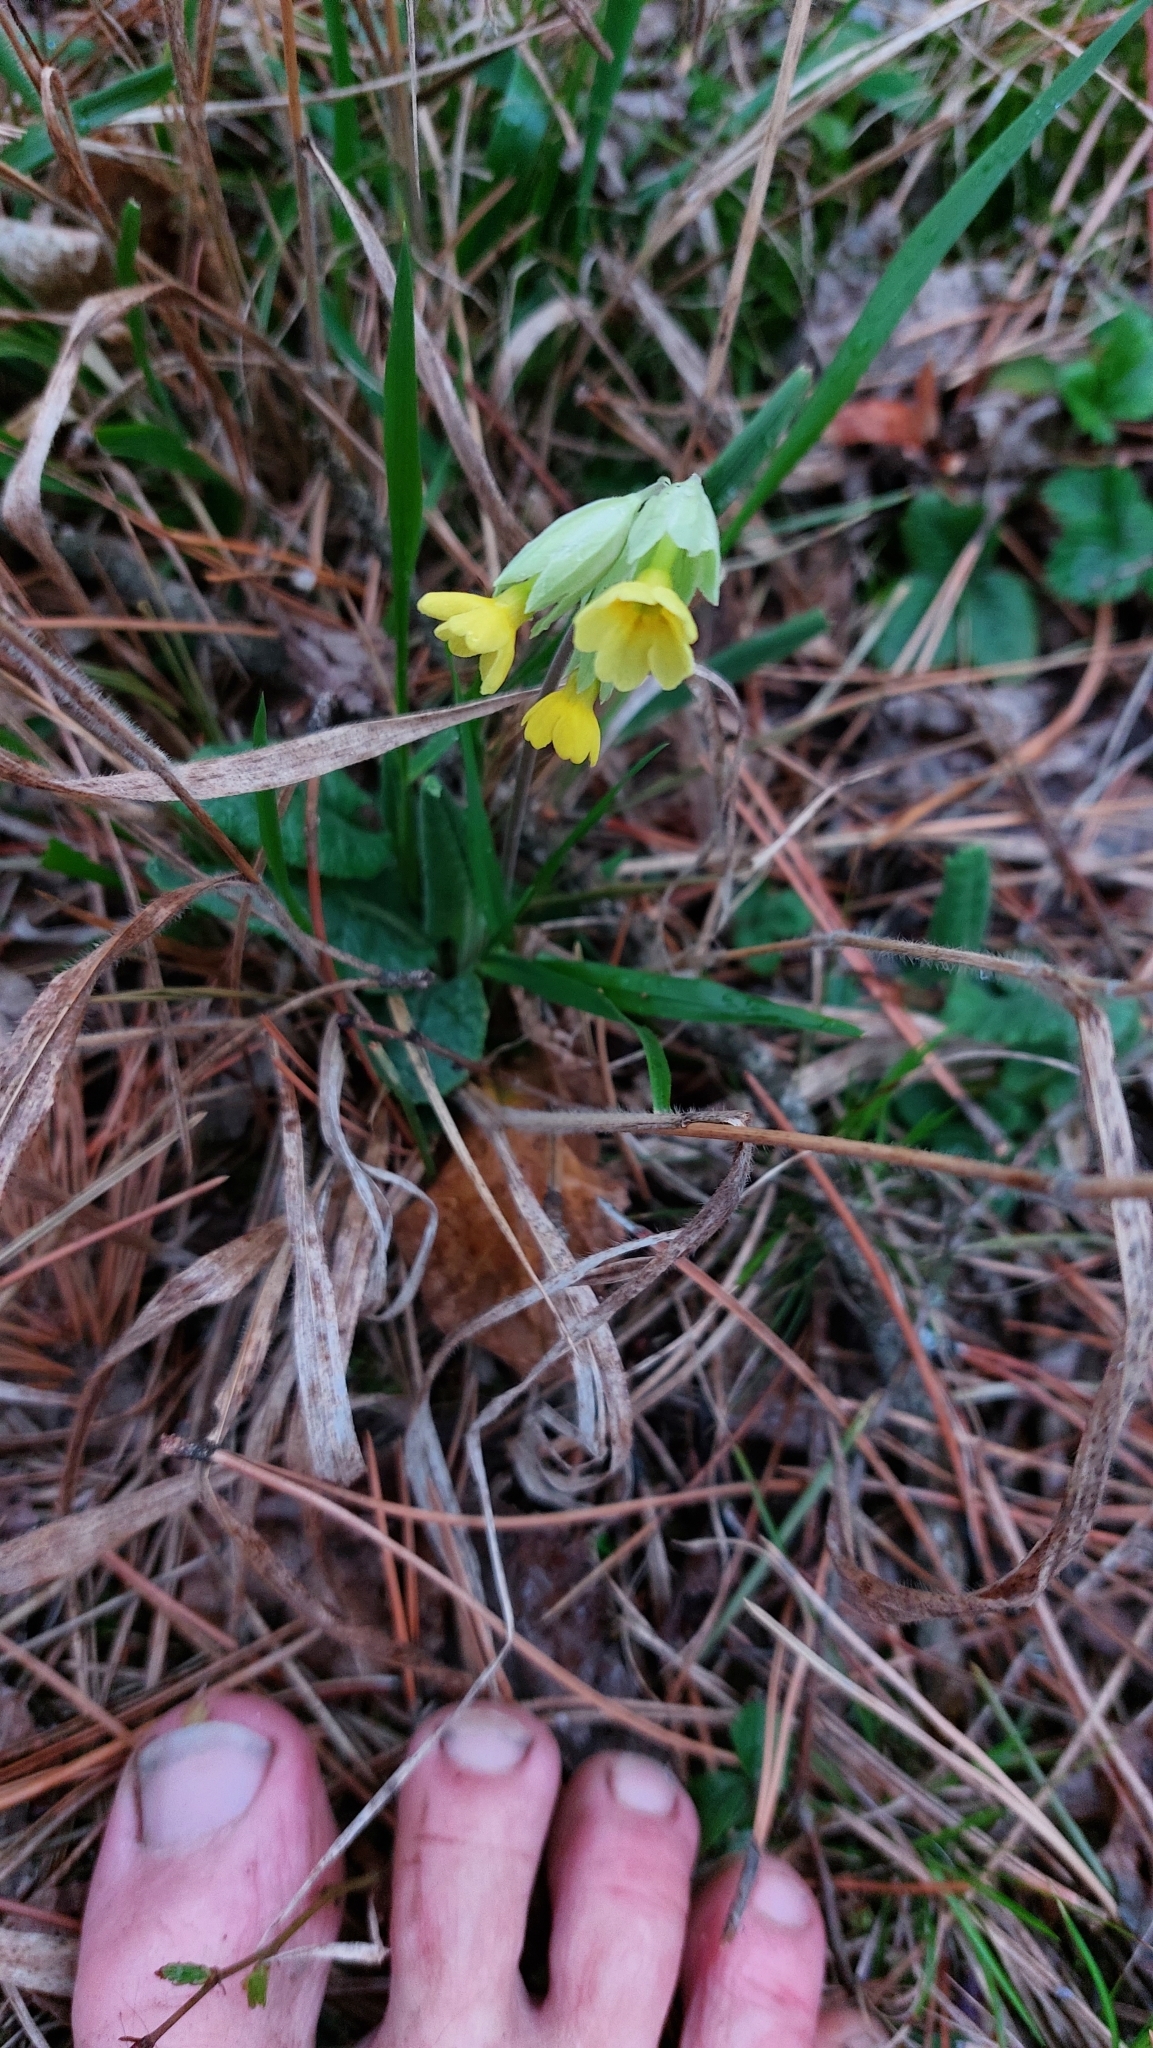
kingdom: Plantae
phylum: Tracheophyta
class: Magnoliopsida
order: Ericales
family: Primulaceae
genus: Primula
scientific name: Primula veris
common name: Cowslip
